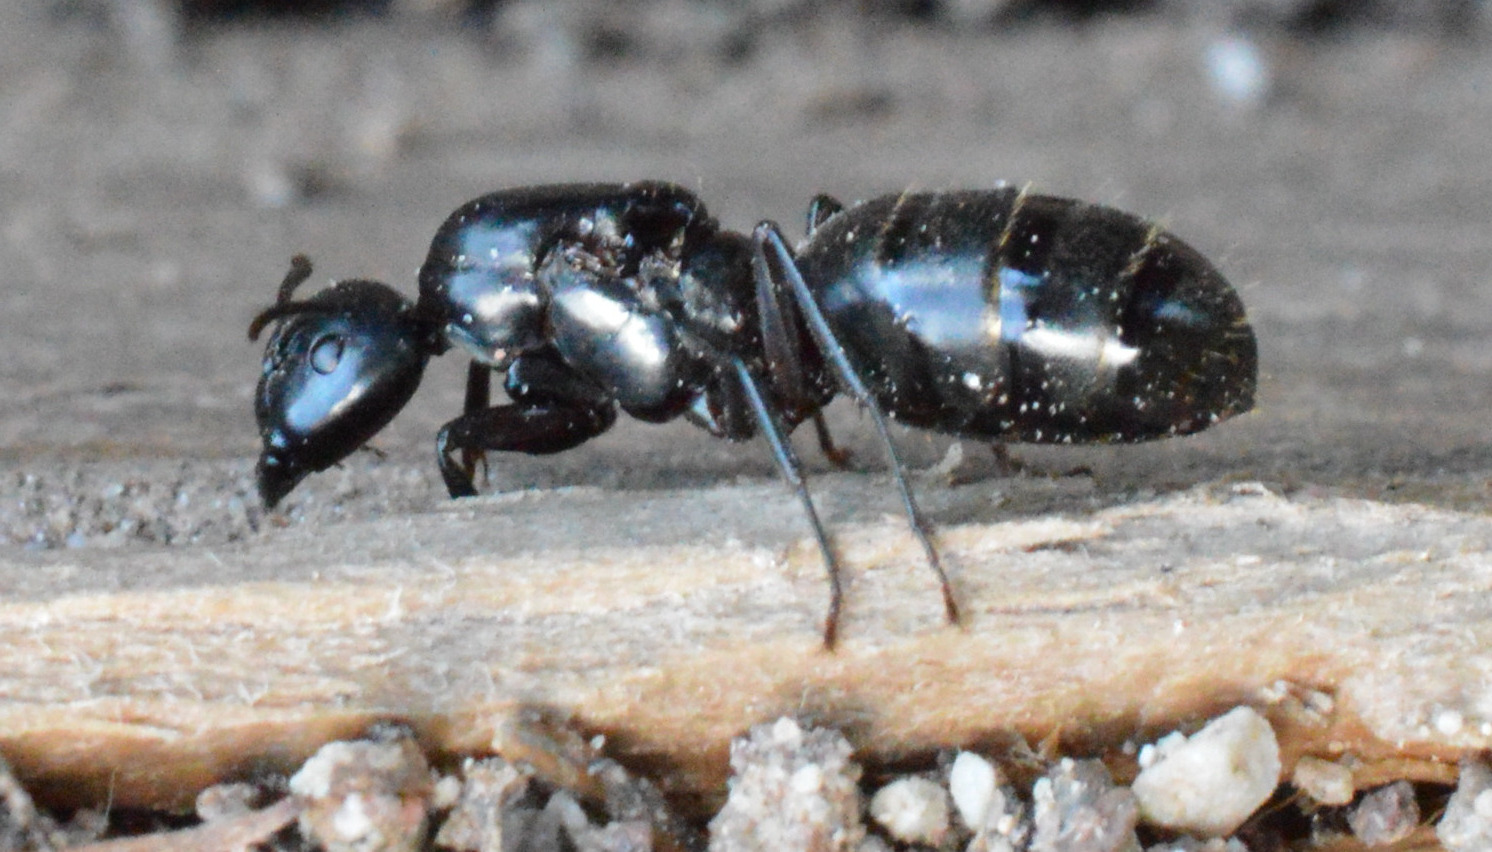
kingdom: Animalia
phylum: Arthropoda
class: Insecta
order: Hymenoptera
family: Formicidae
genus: Camponotus
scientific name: Camponotus vagus
